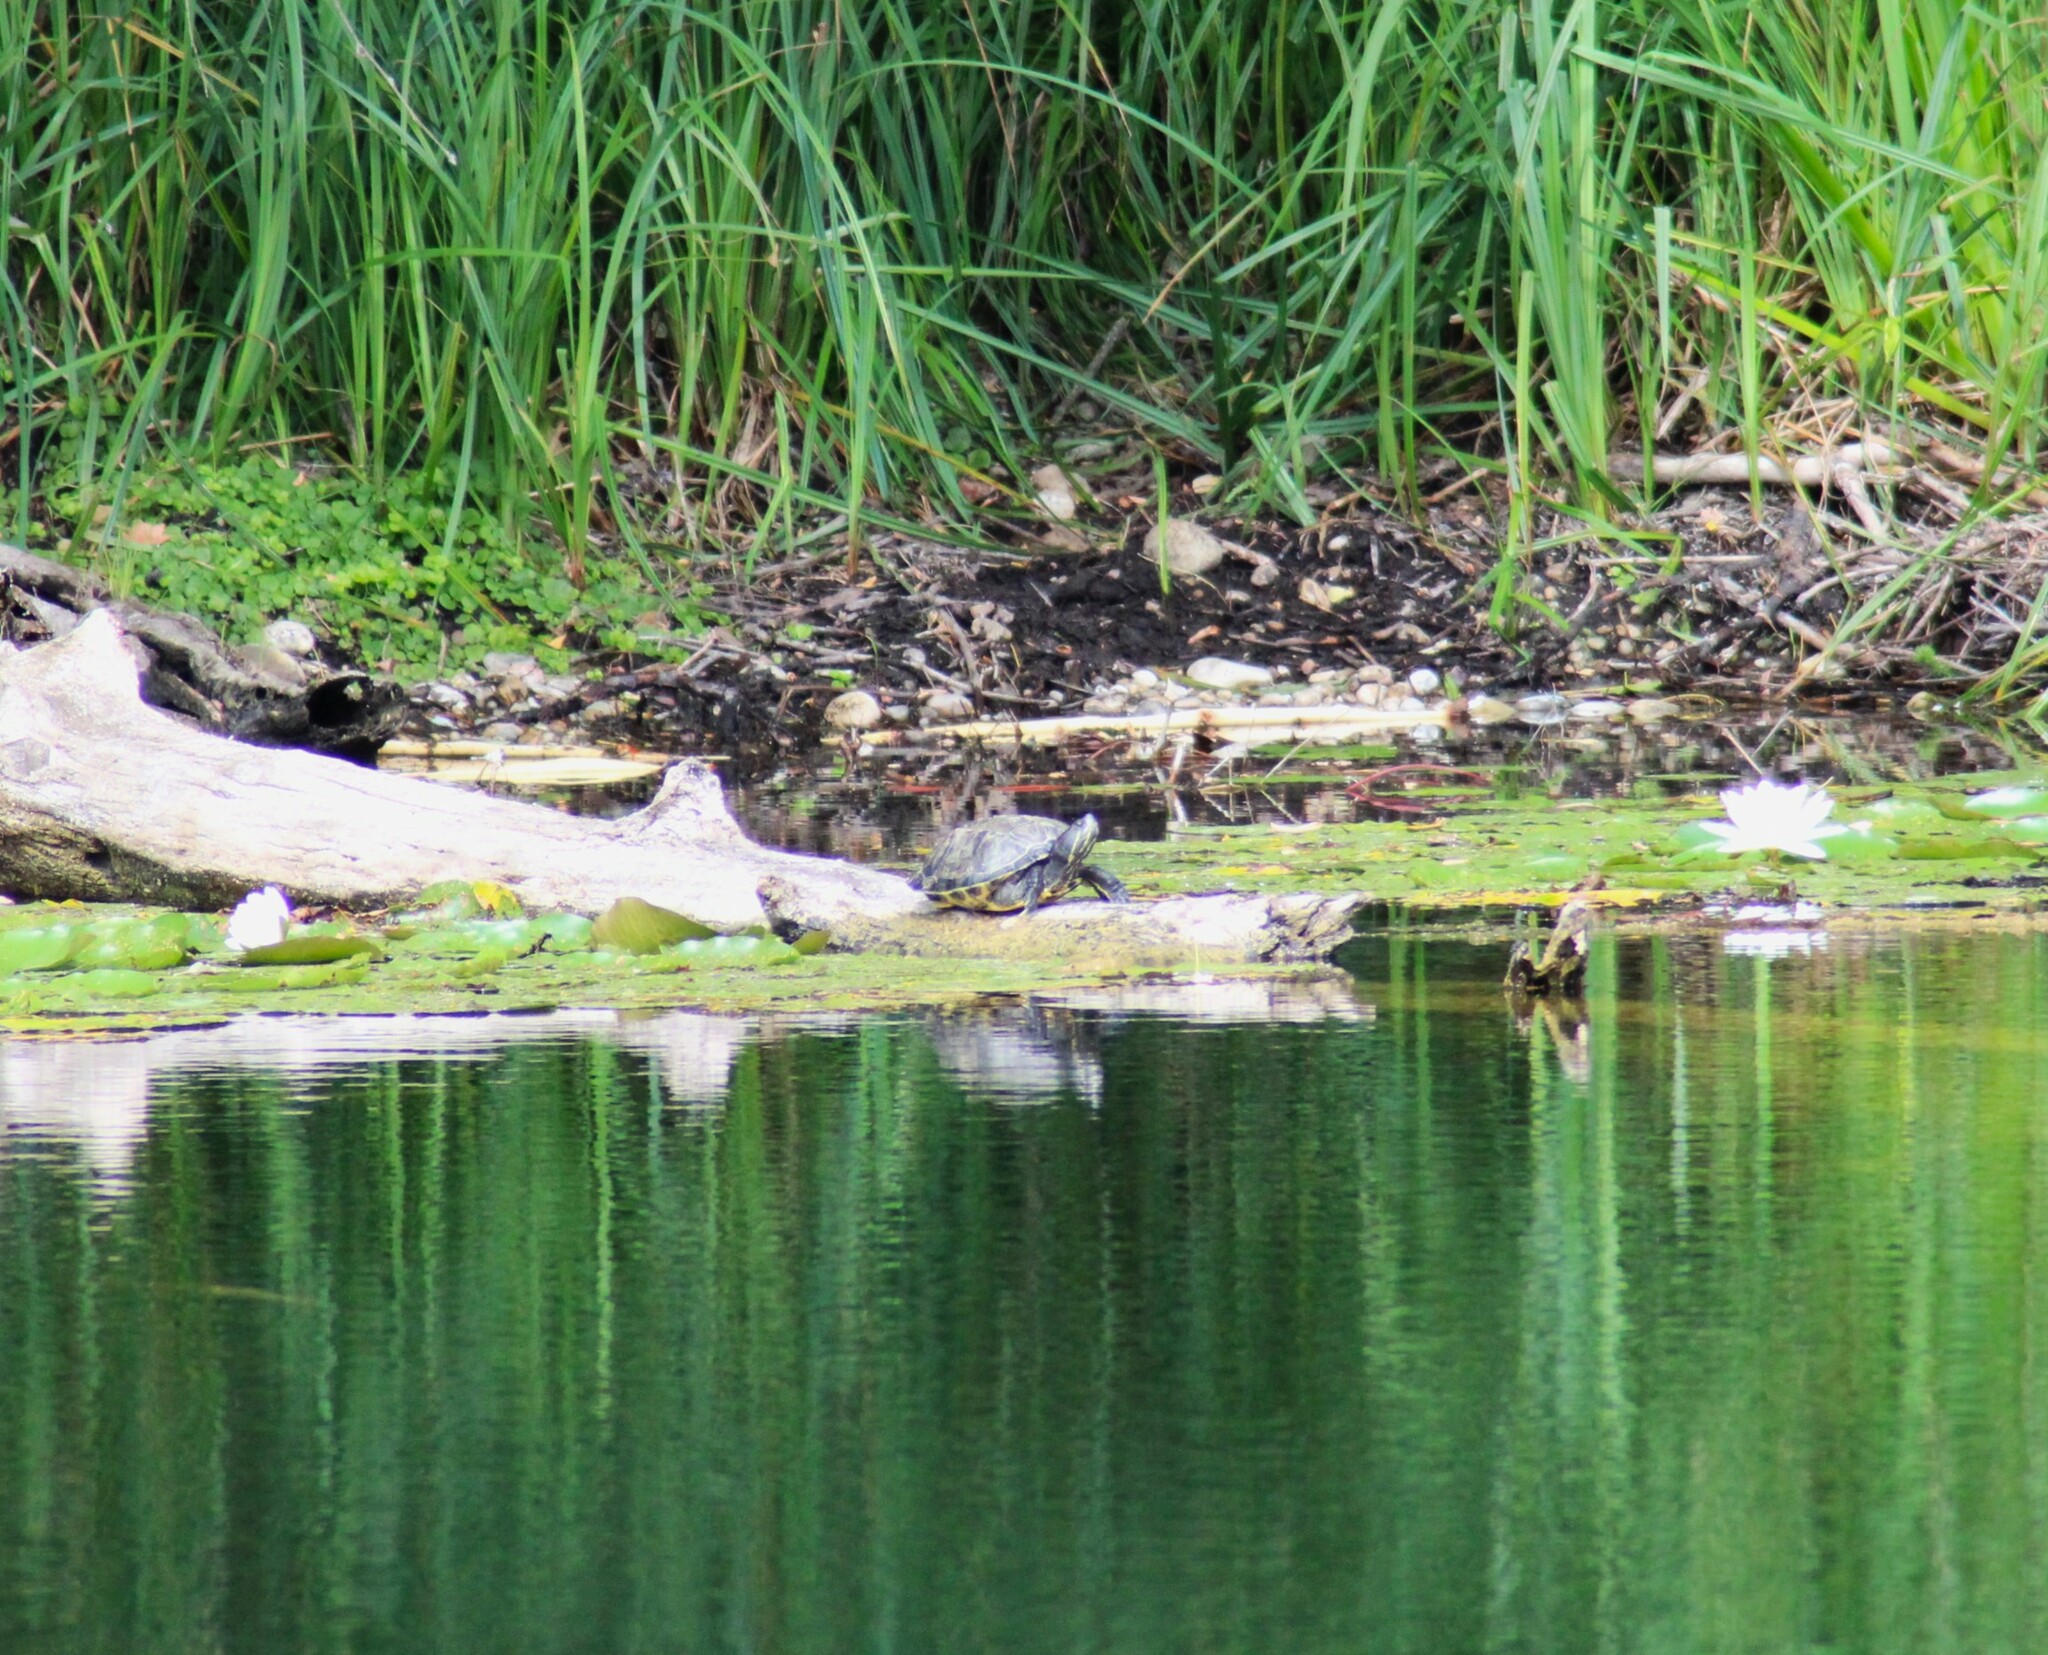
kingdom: Animalia
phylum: Chordata
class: Testudines
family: Emydidae
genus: Trachemys
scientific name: Trachemys scripta
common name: Slider
